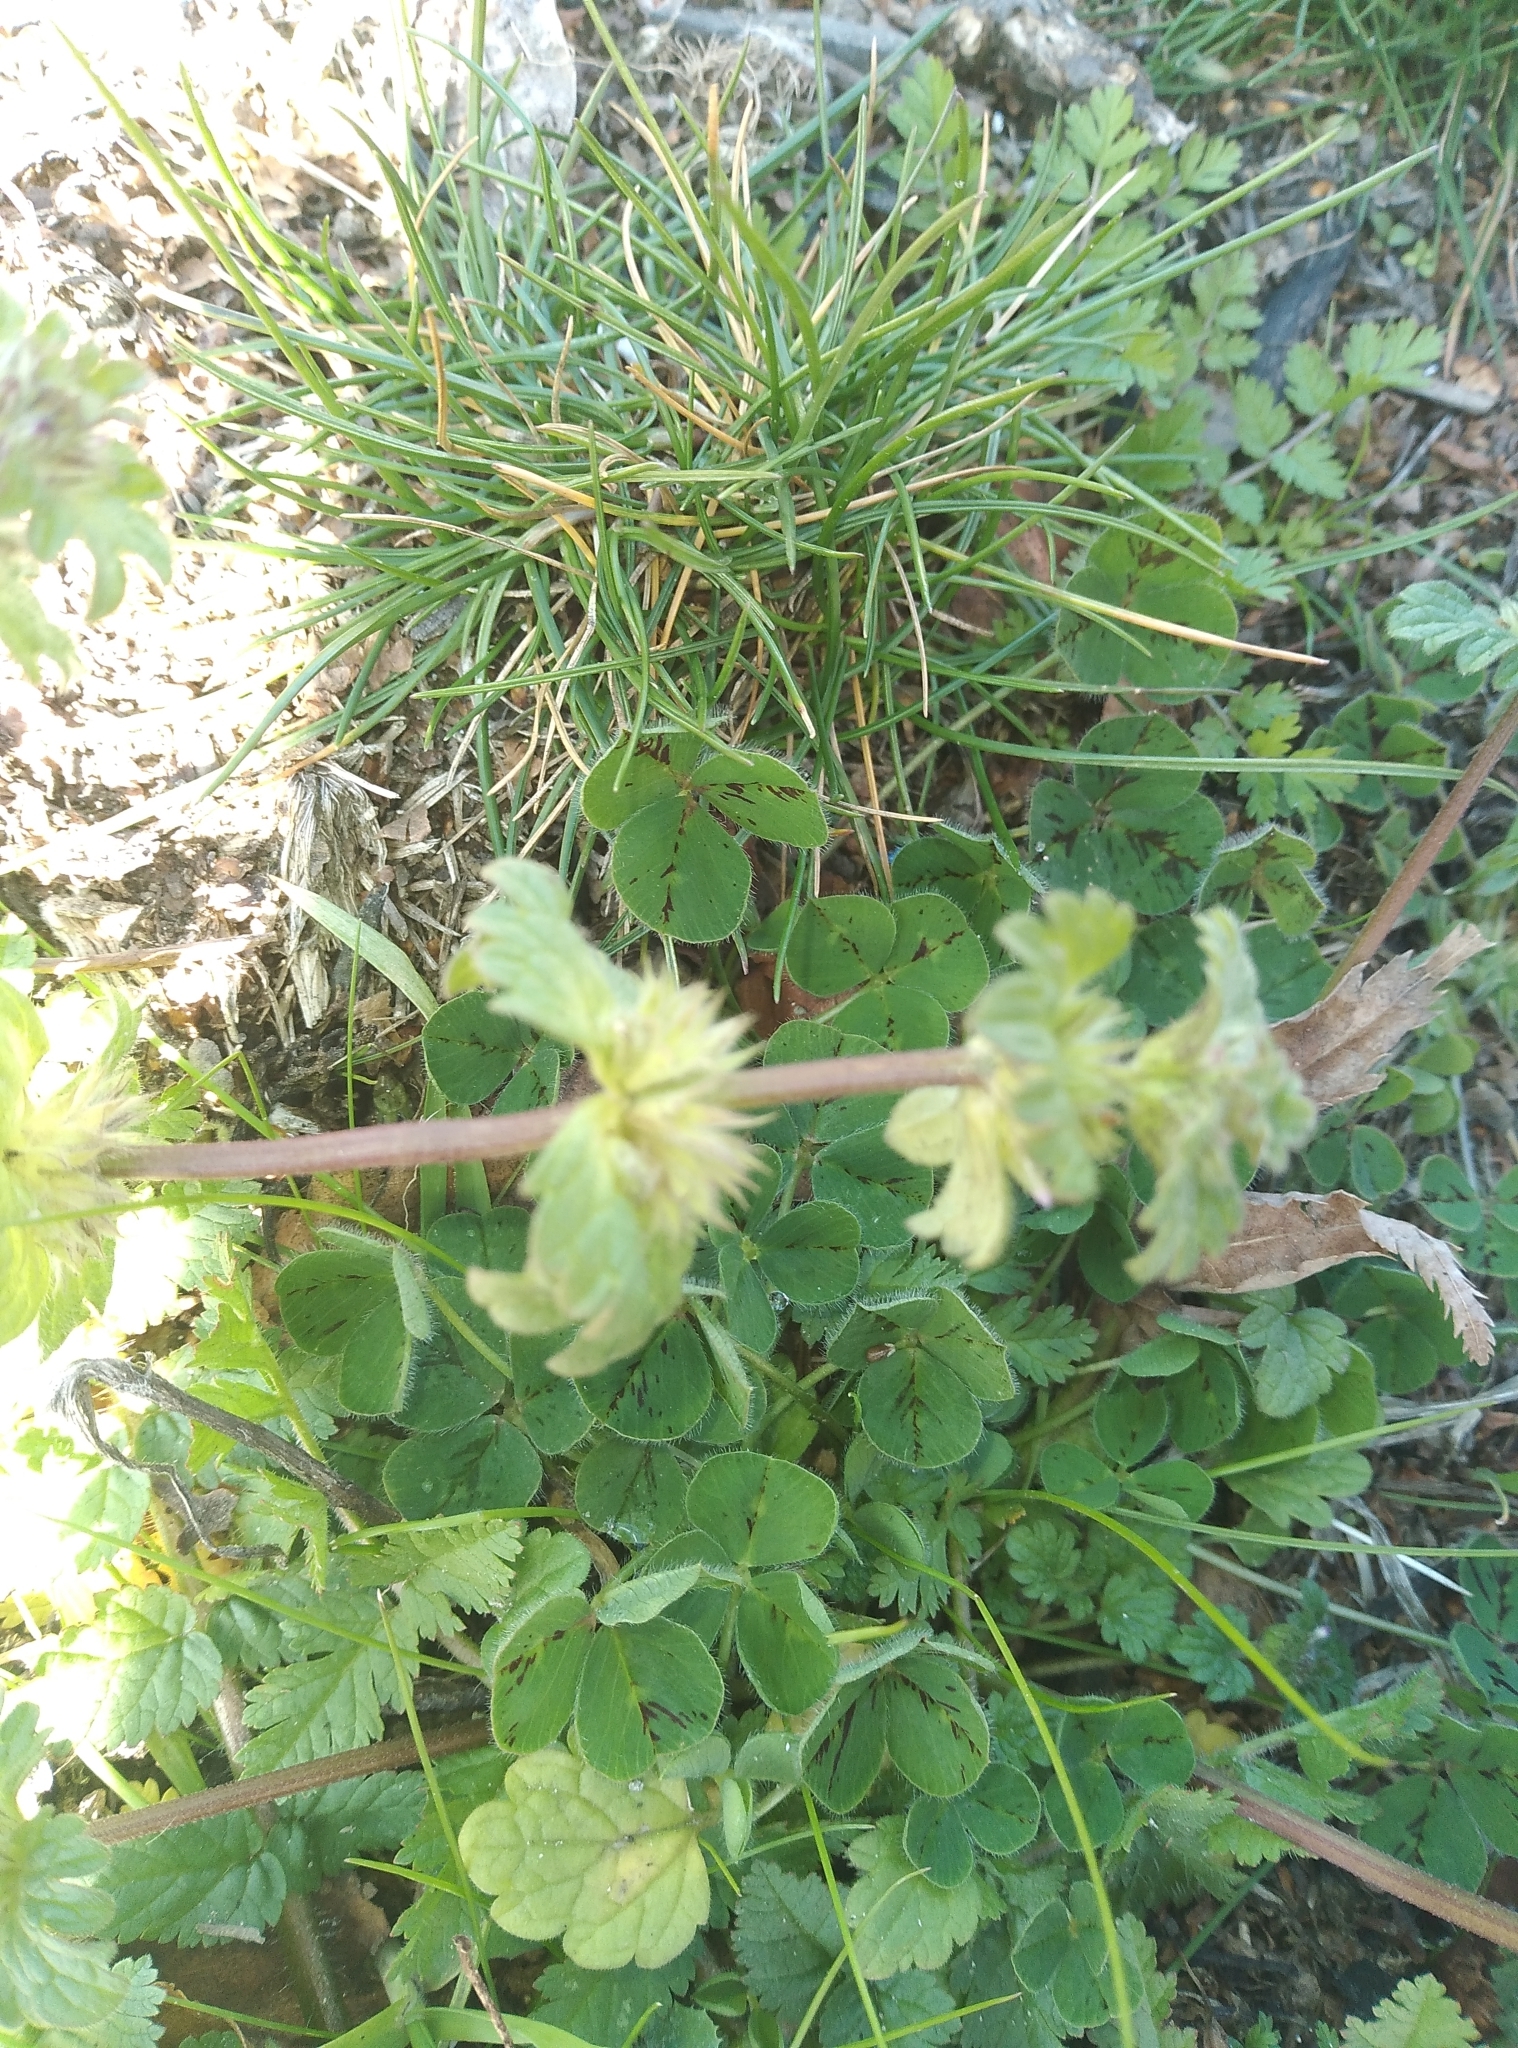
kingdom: Plantae
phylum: Tracheophyta
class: Magnoliopsida
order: Lamiales
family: Lamiaceae
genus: Lamium
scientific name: Lamium amplexicaule
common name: Henbit dead-nettle
